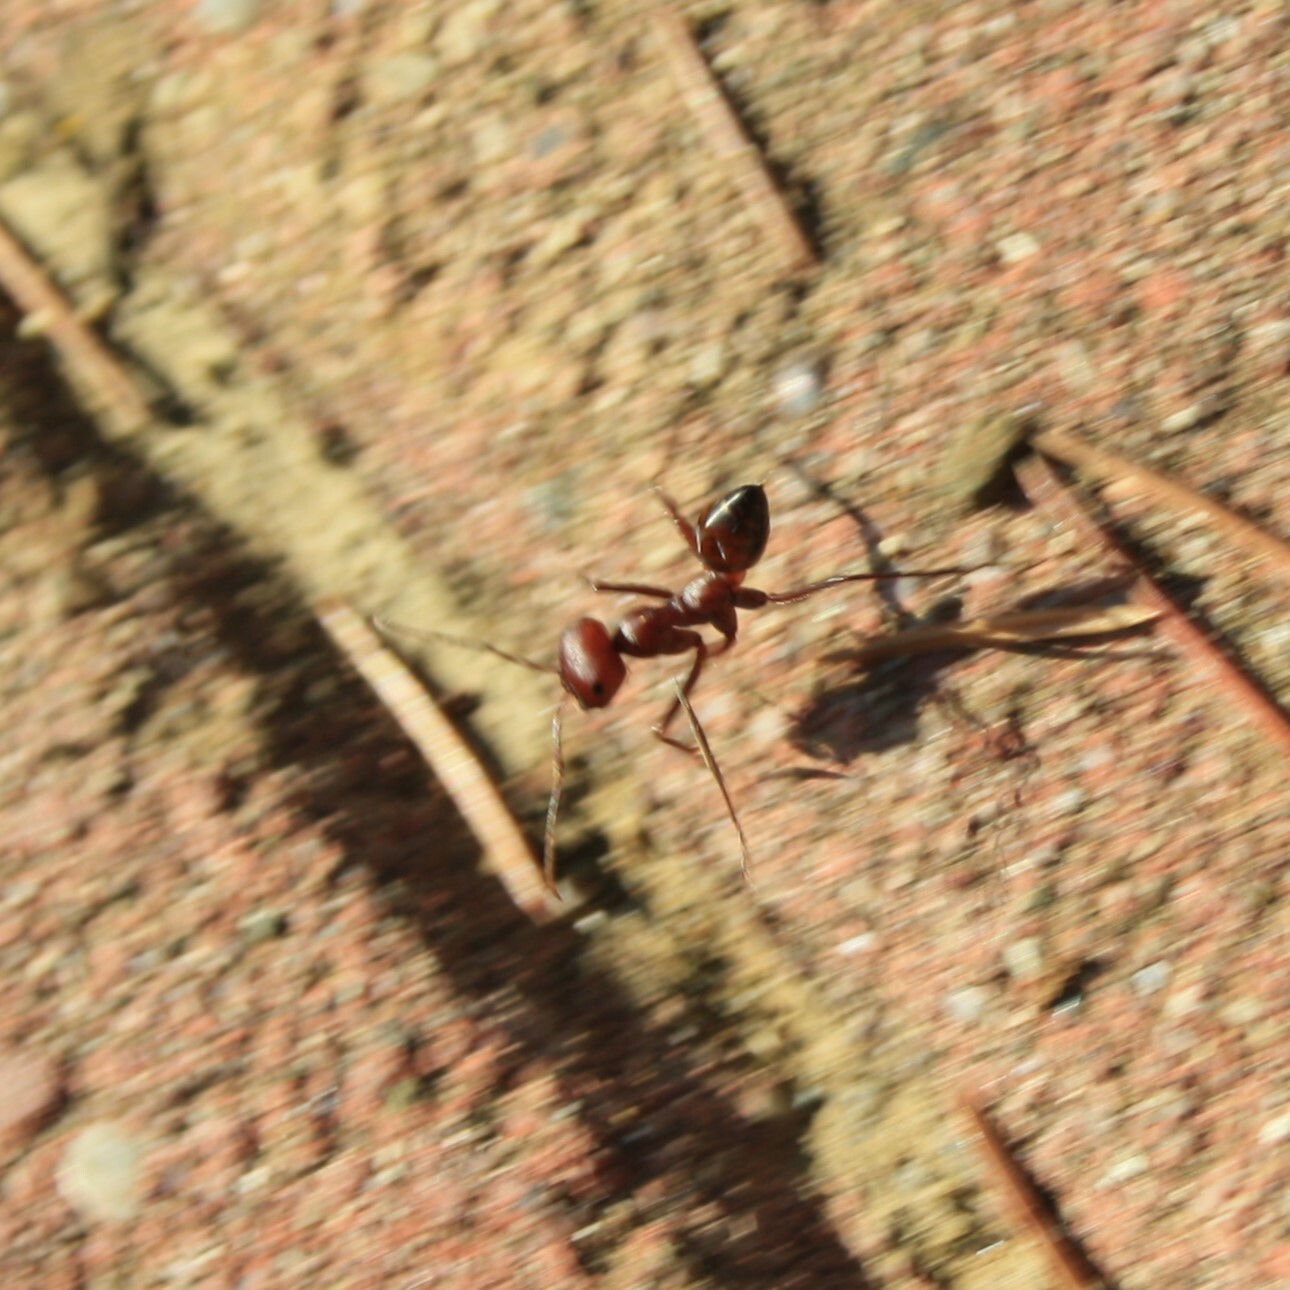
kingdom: Animalia
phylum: Arthropoda
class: Insecta
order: Hymenoptera
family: Formicidae
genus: Cataglyphis
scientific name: Cataglyphis
